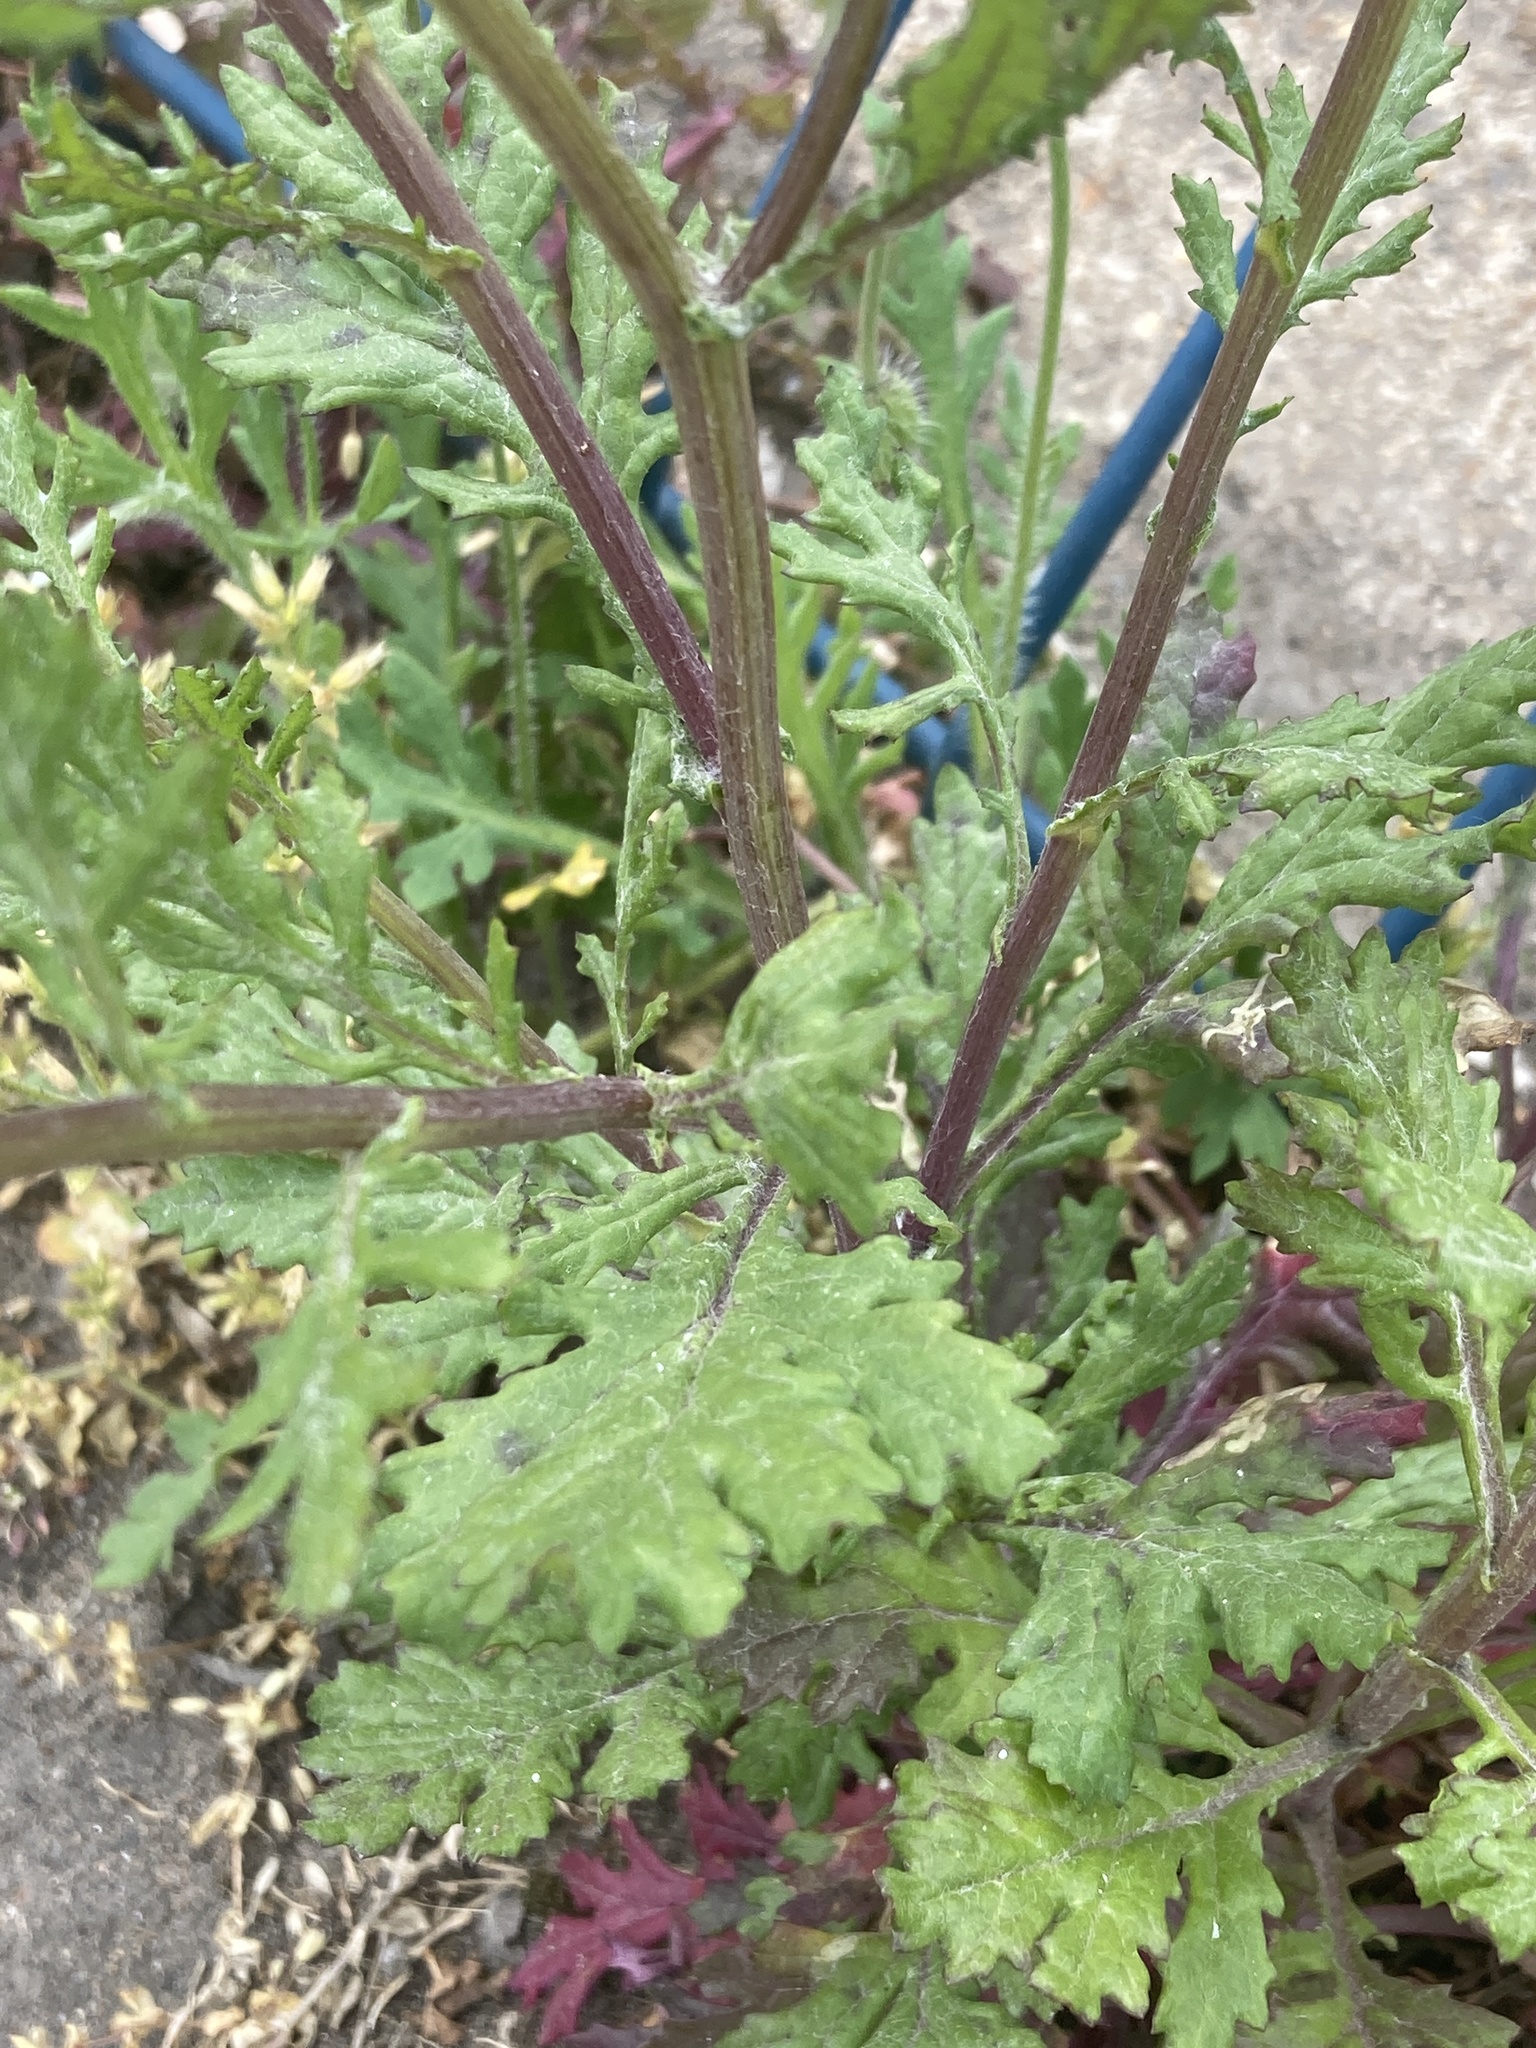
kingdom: Plantae
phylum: Tracheophyta
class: Magnoliopsida
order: Asterales
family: Asteraceae
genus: Senecio
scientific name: Senecio squalidus
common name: Oxford ragwort
